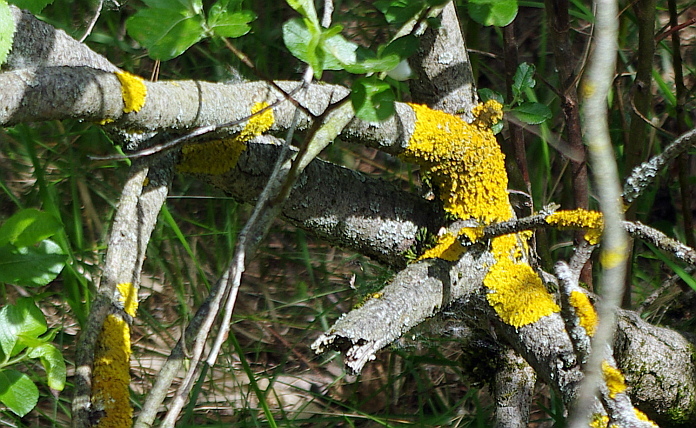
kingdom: Fungi
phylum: Ascomycota
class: Lecanoromycetes
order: Teloschistales
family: Teloschistaceae
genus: Xanthoria
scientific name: Xanthoria parietina
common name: Common orange lichen
